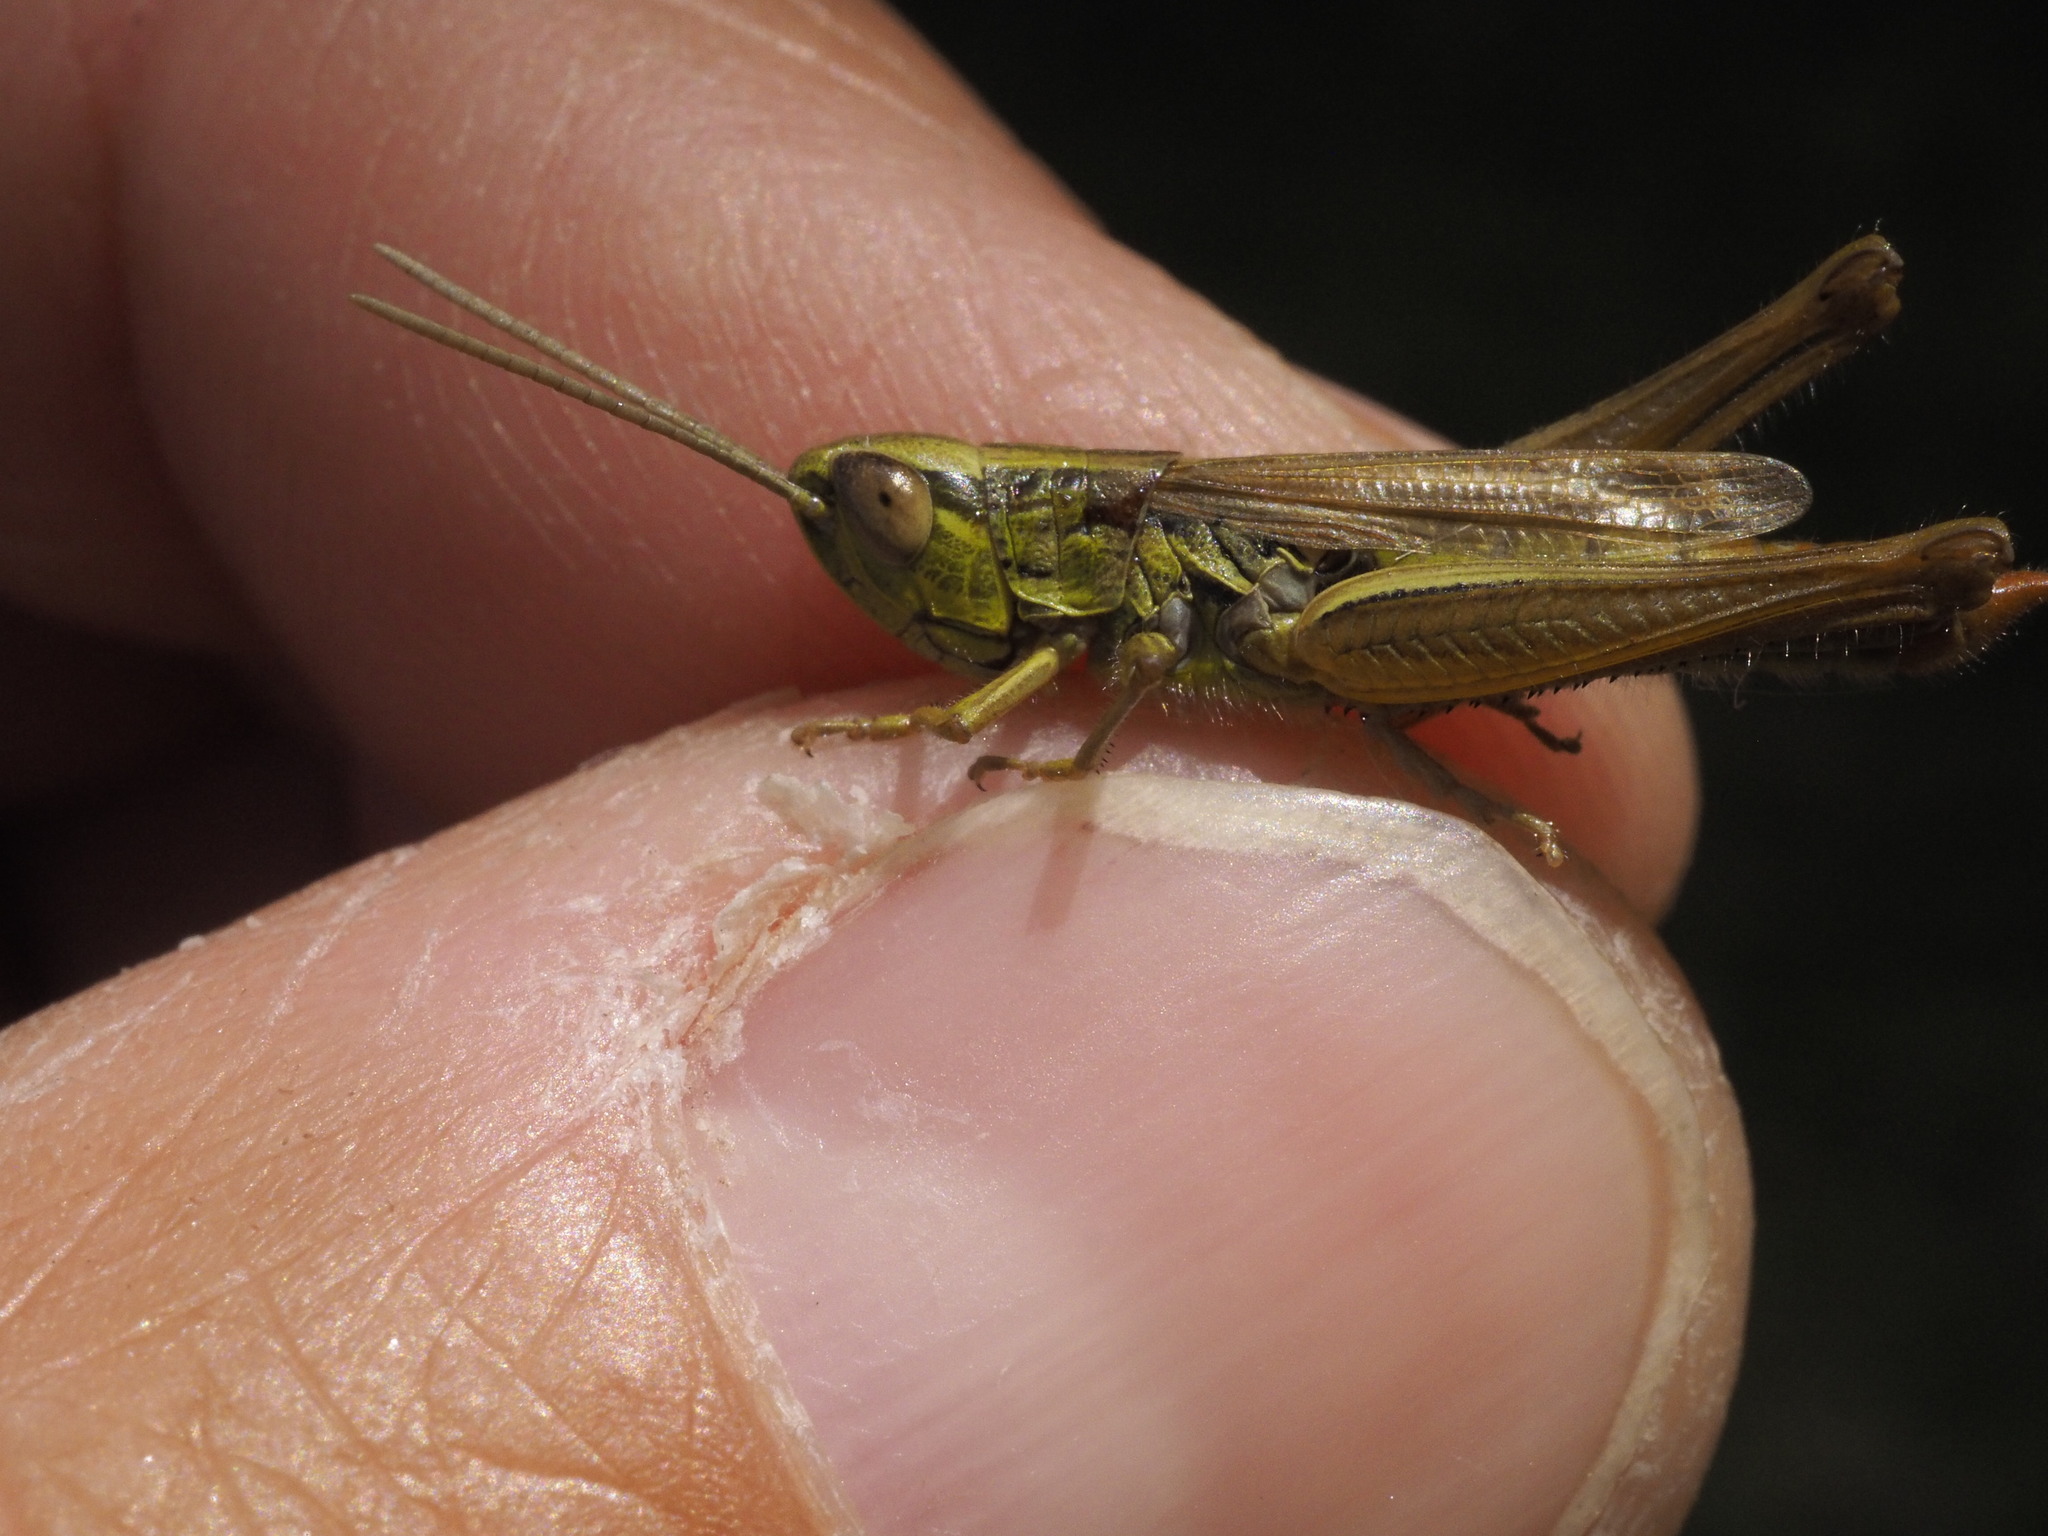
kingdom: Animalia
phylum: Arthropoda
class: Insecta
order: Orthoptera
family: Acrididae
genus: Euchorthippus
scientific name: Euchorthippus declivus
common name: Common straw grasshopper
